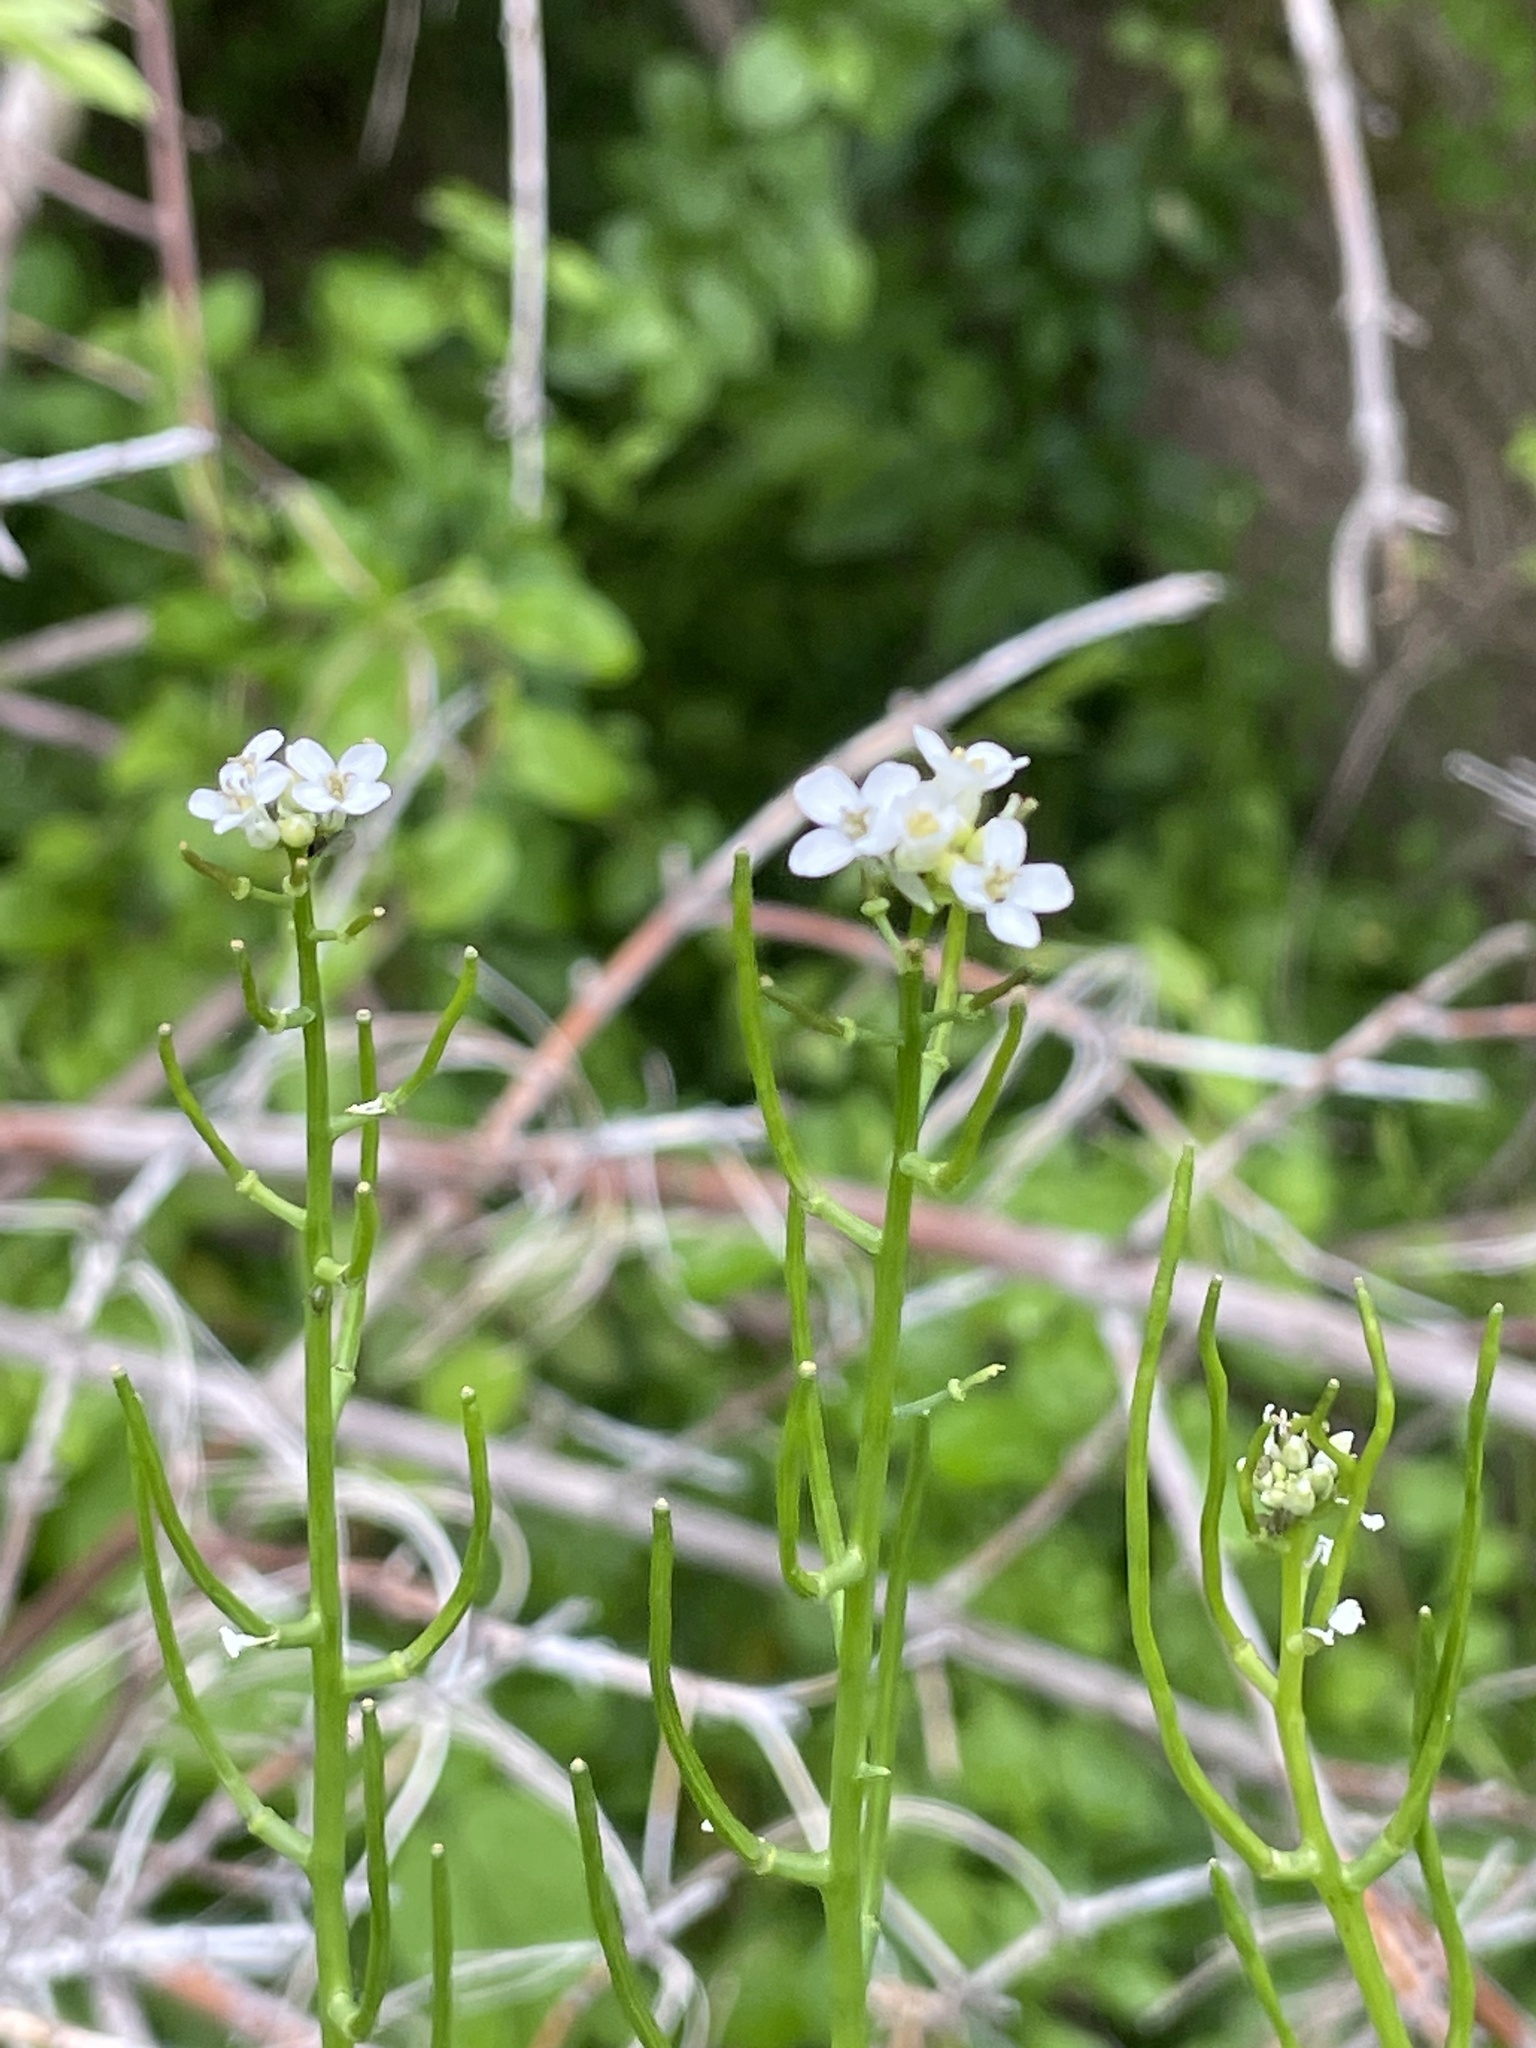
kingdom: Plantae
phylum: Tracheophyta
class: Magnoliopsida
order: Brassicales
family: Brassicaceae
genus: Alliaria
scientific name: Alliaria petiolata
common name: Garlic mustard
